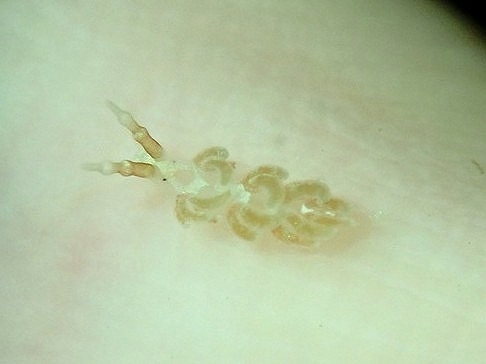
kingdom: Animalia
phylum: Mollusca
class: Gastropoda
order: Nudibranchia
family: Facelinidae
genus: Favorinus
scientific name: Favorinus vitreus
